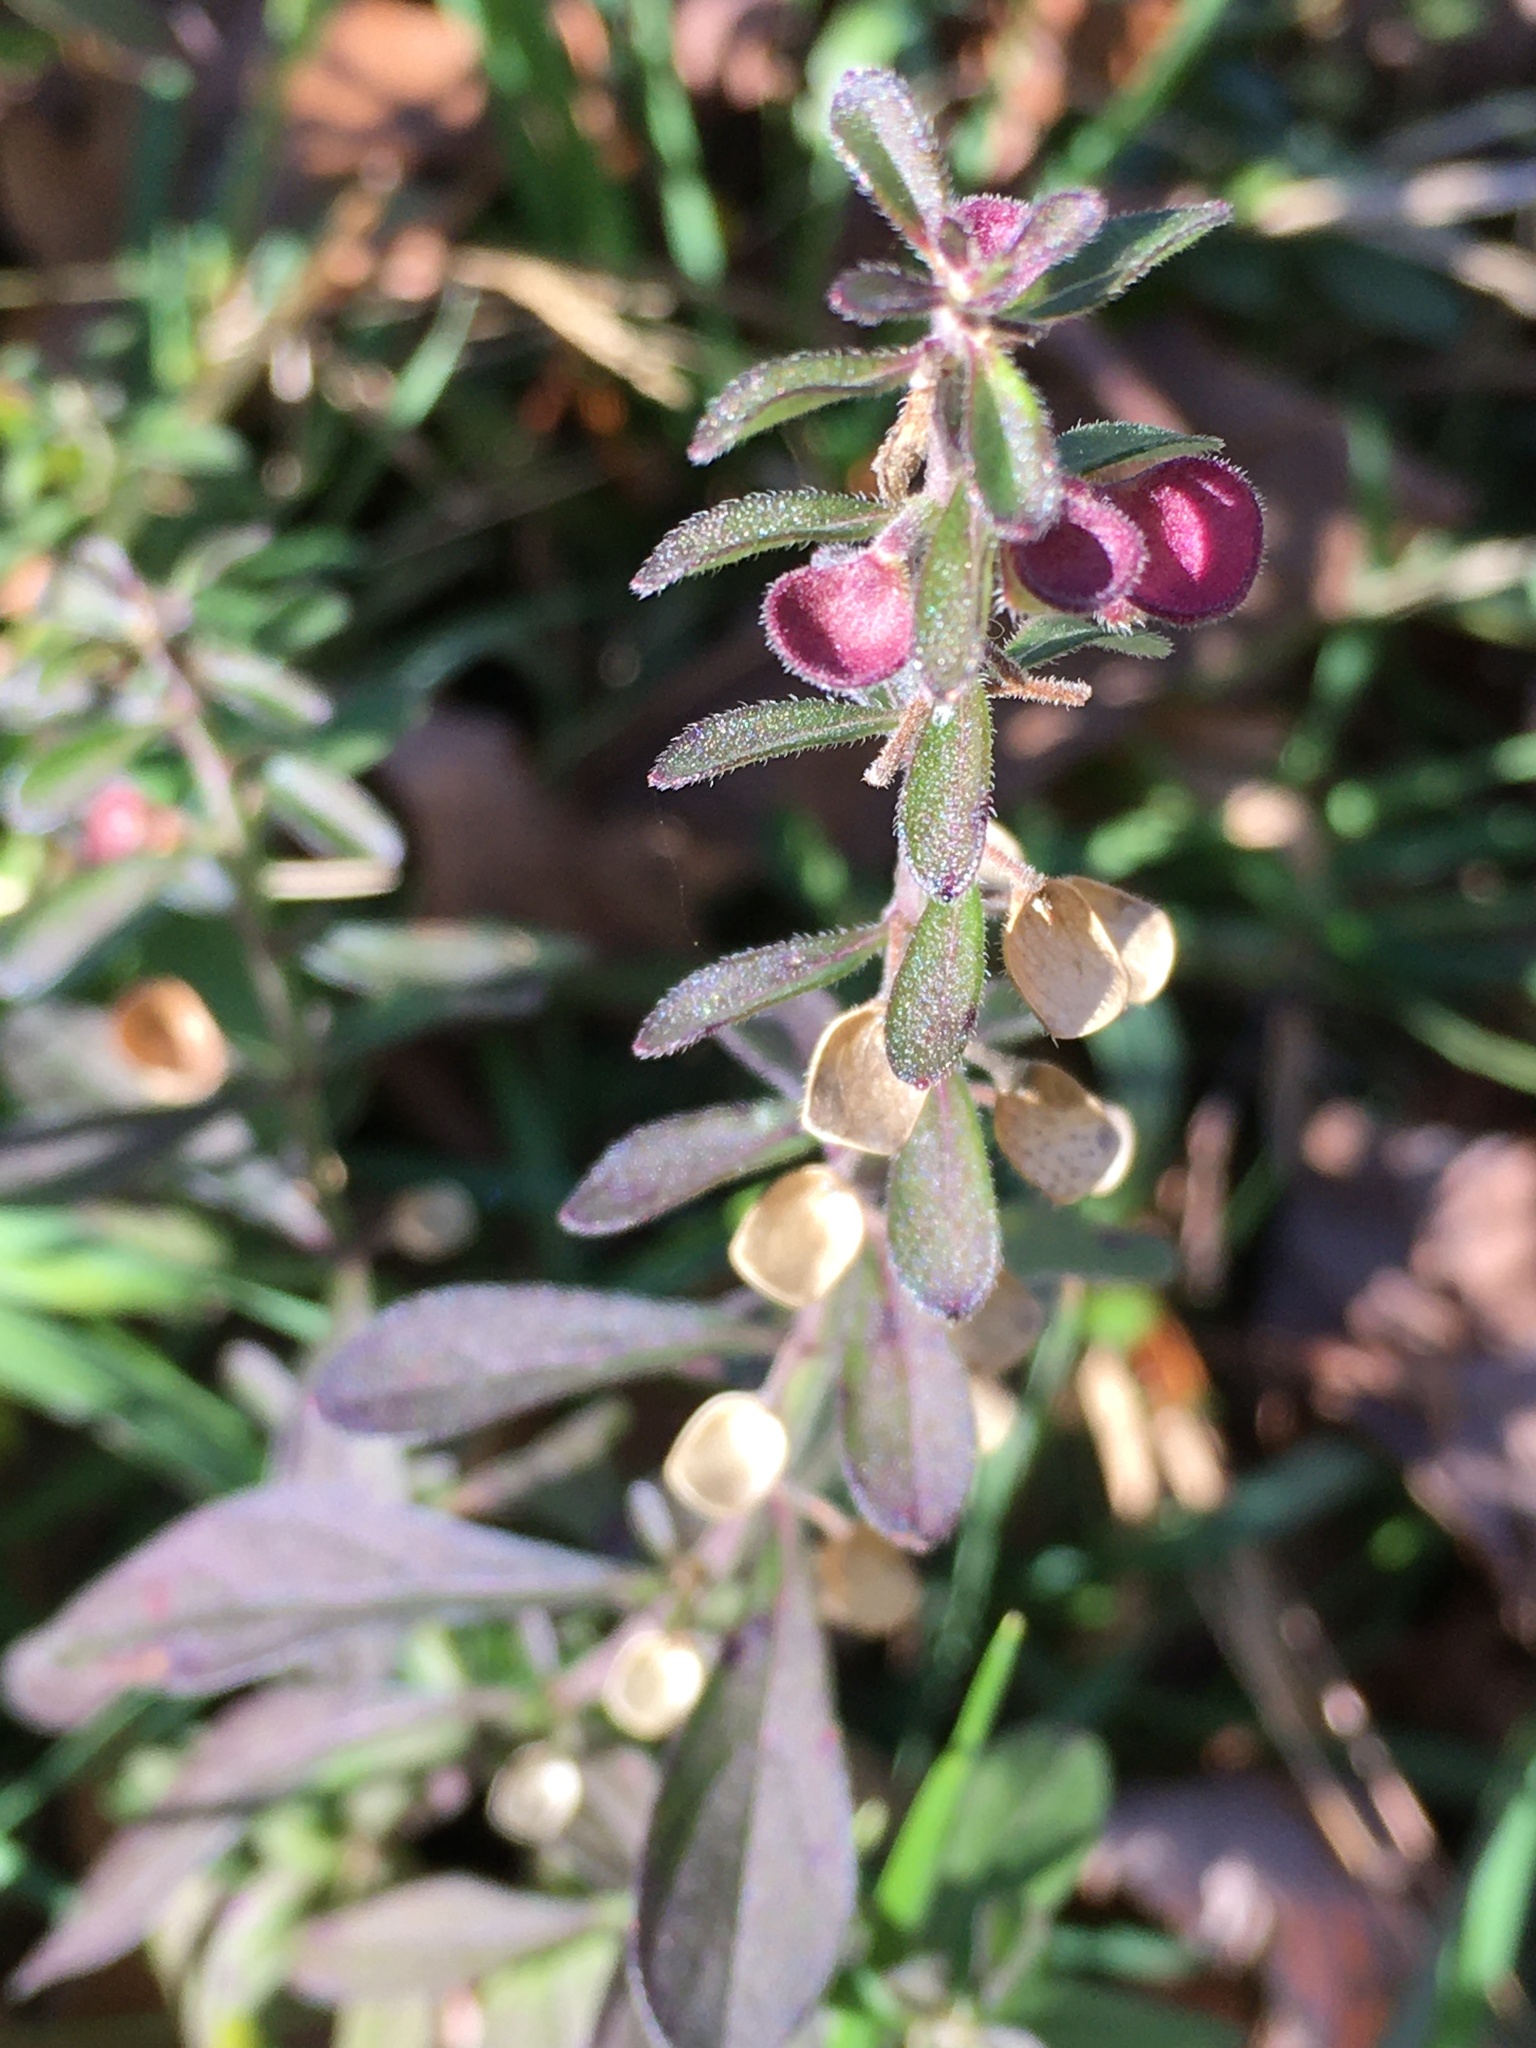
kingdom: Plantae
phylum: Tracheophyta
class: Magnoliopsida
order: Lamiales
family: Lamiaceae
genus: Scutellaria
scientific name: Scutellaria integrifolia
